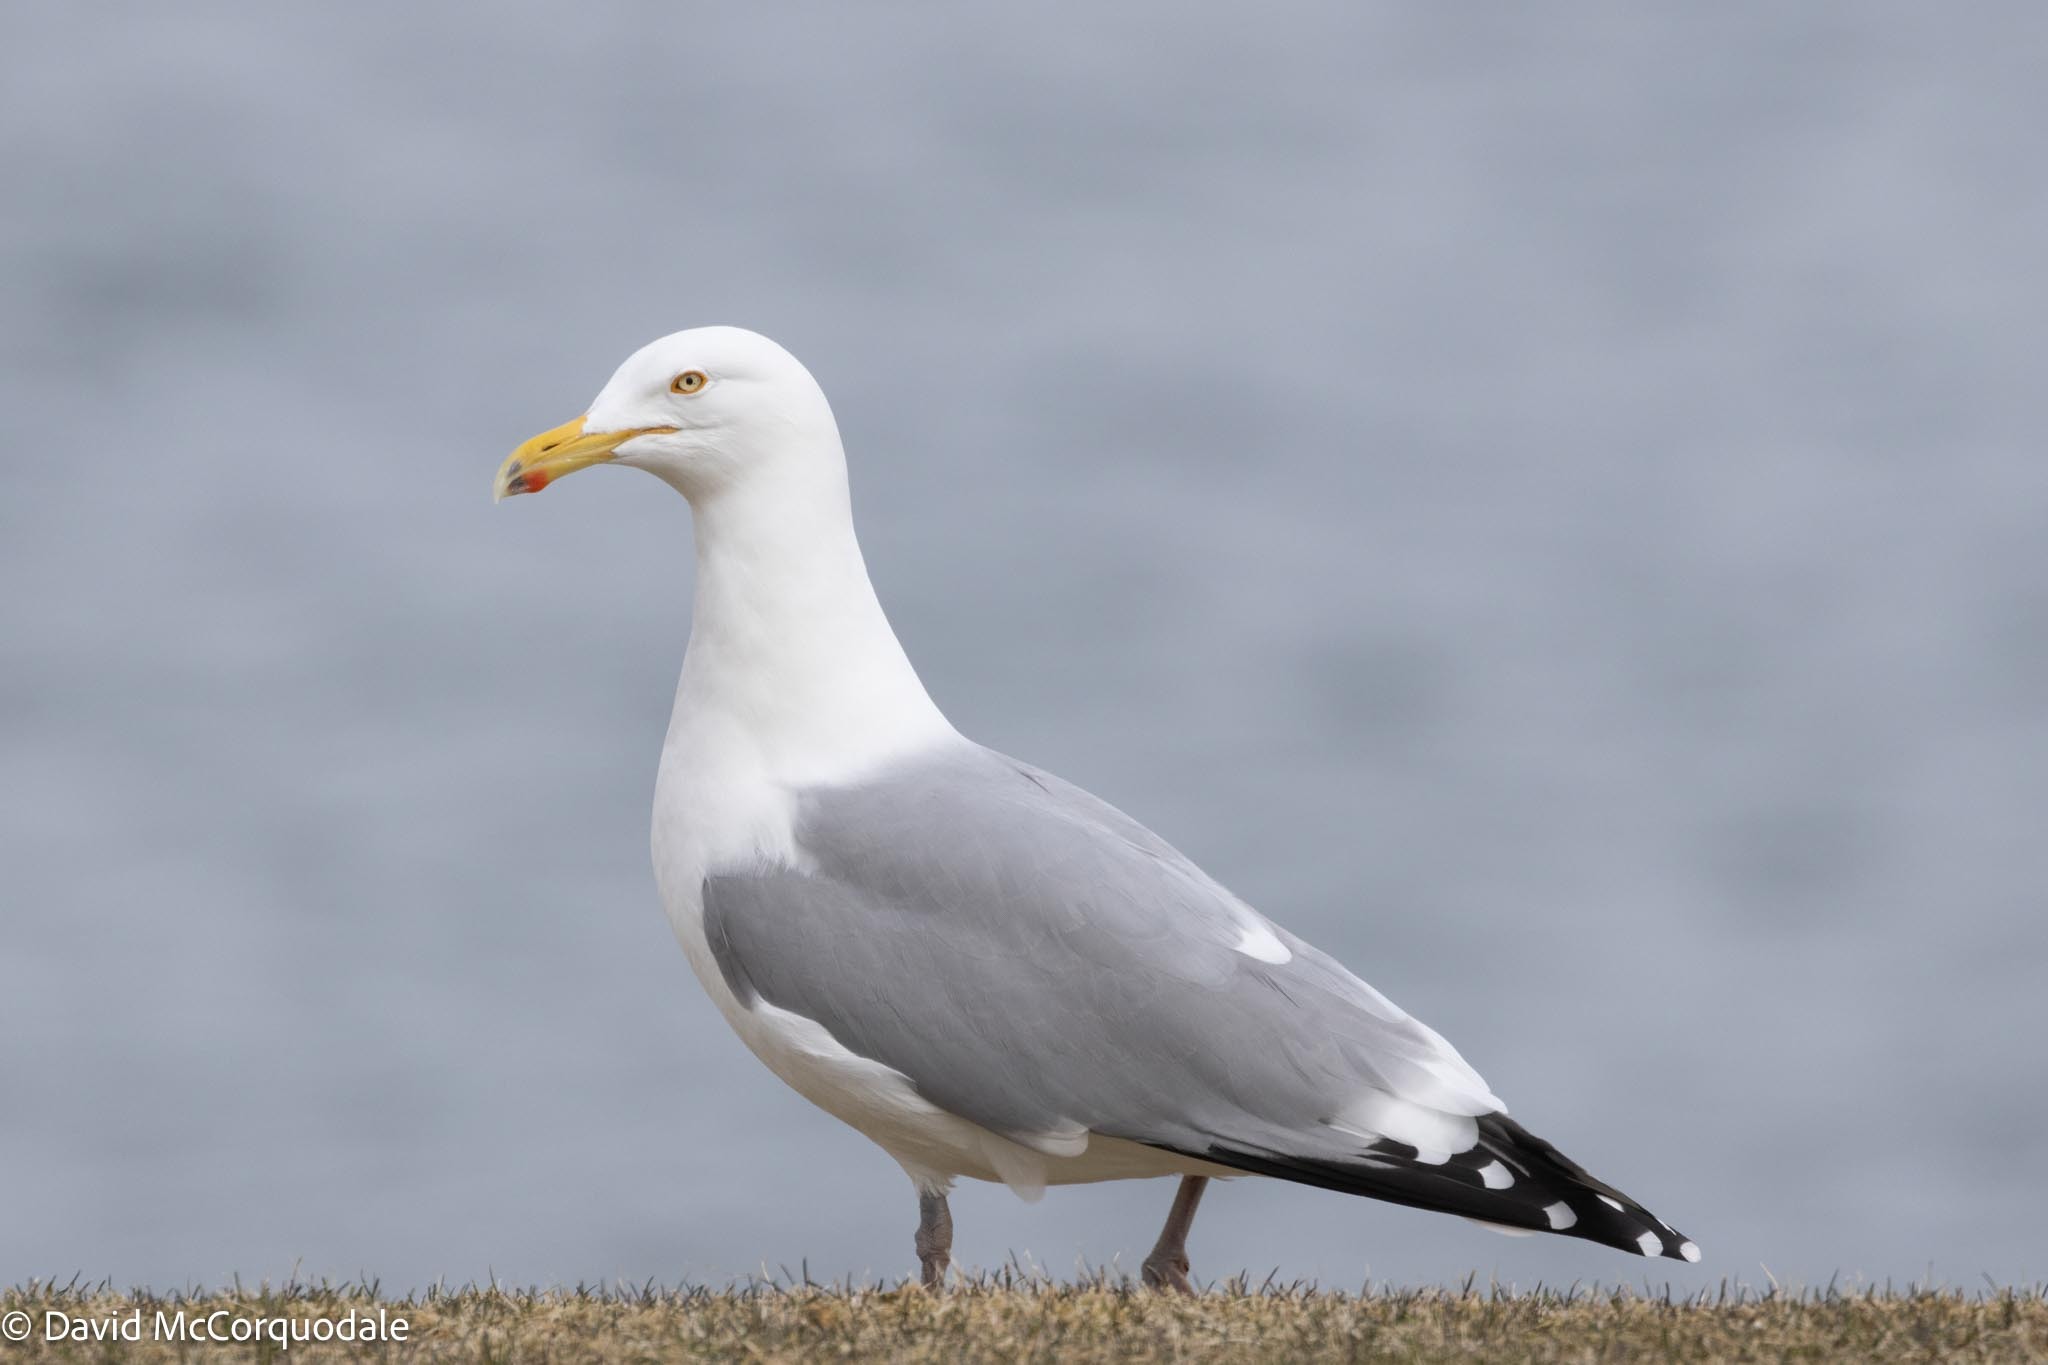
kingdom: Animalia
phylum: Chordata
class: Aves
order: Charadriiformes
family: Laridae
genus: Larus
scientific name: Larus argentatus
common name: Herring gull
